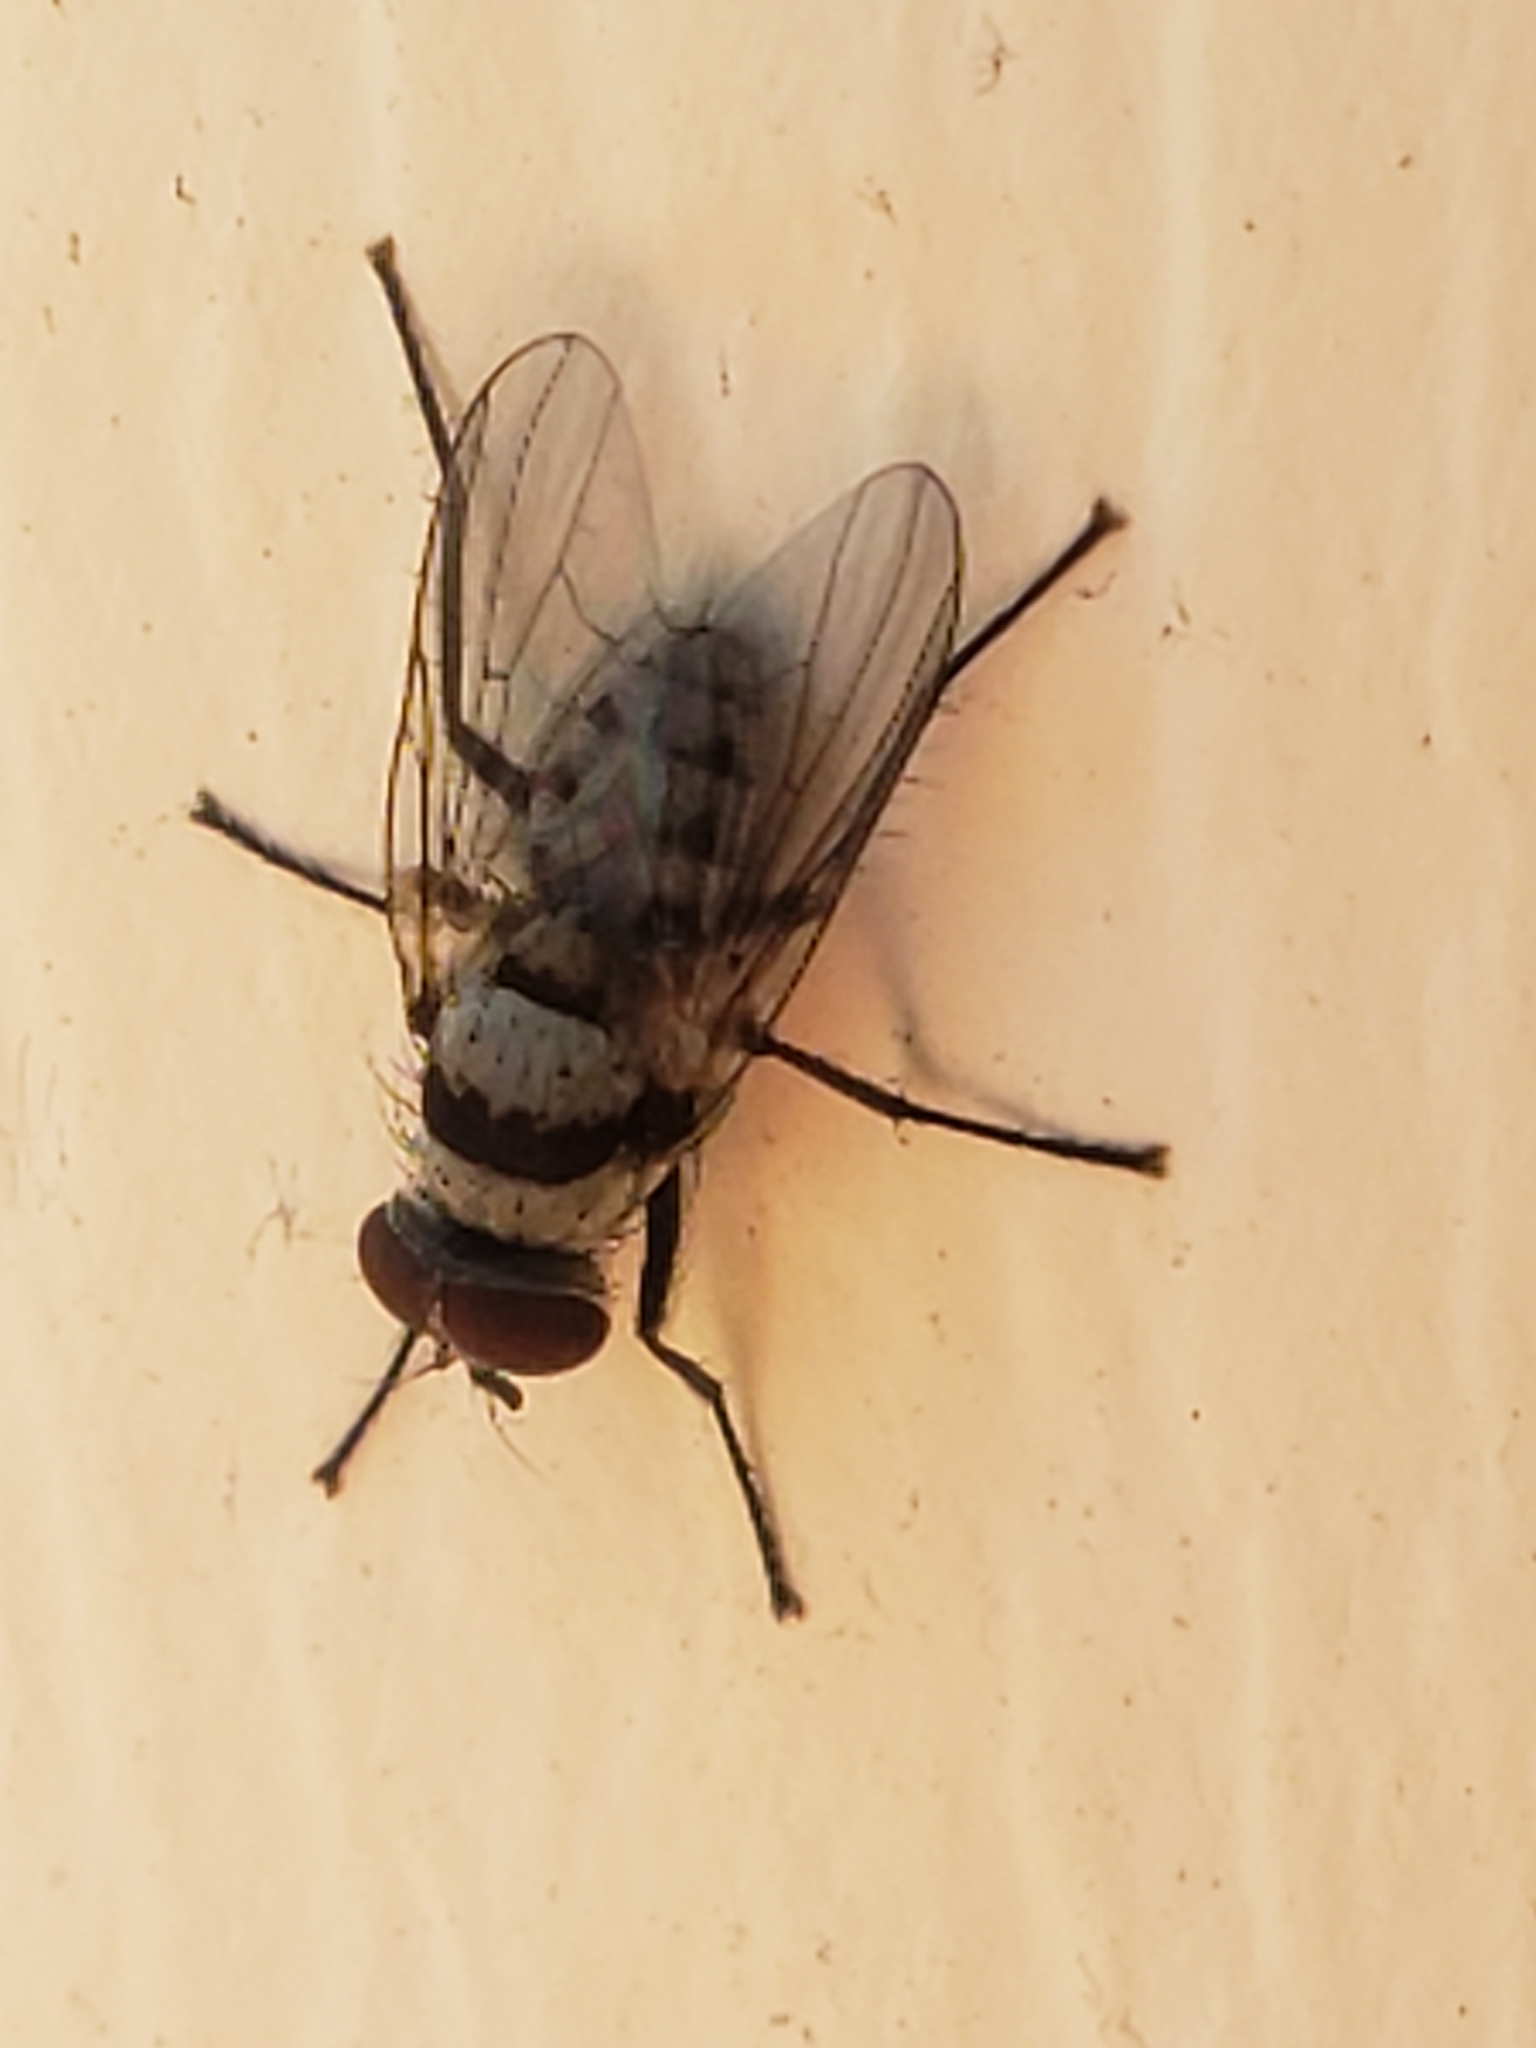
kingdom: Animalia
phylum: Arthropoda
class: Insecta
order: Diptera
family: Anthomyiidae
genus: Anthomyia
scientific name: Anthomyia illocata
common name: Fly
